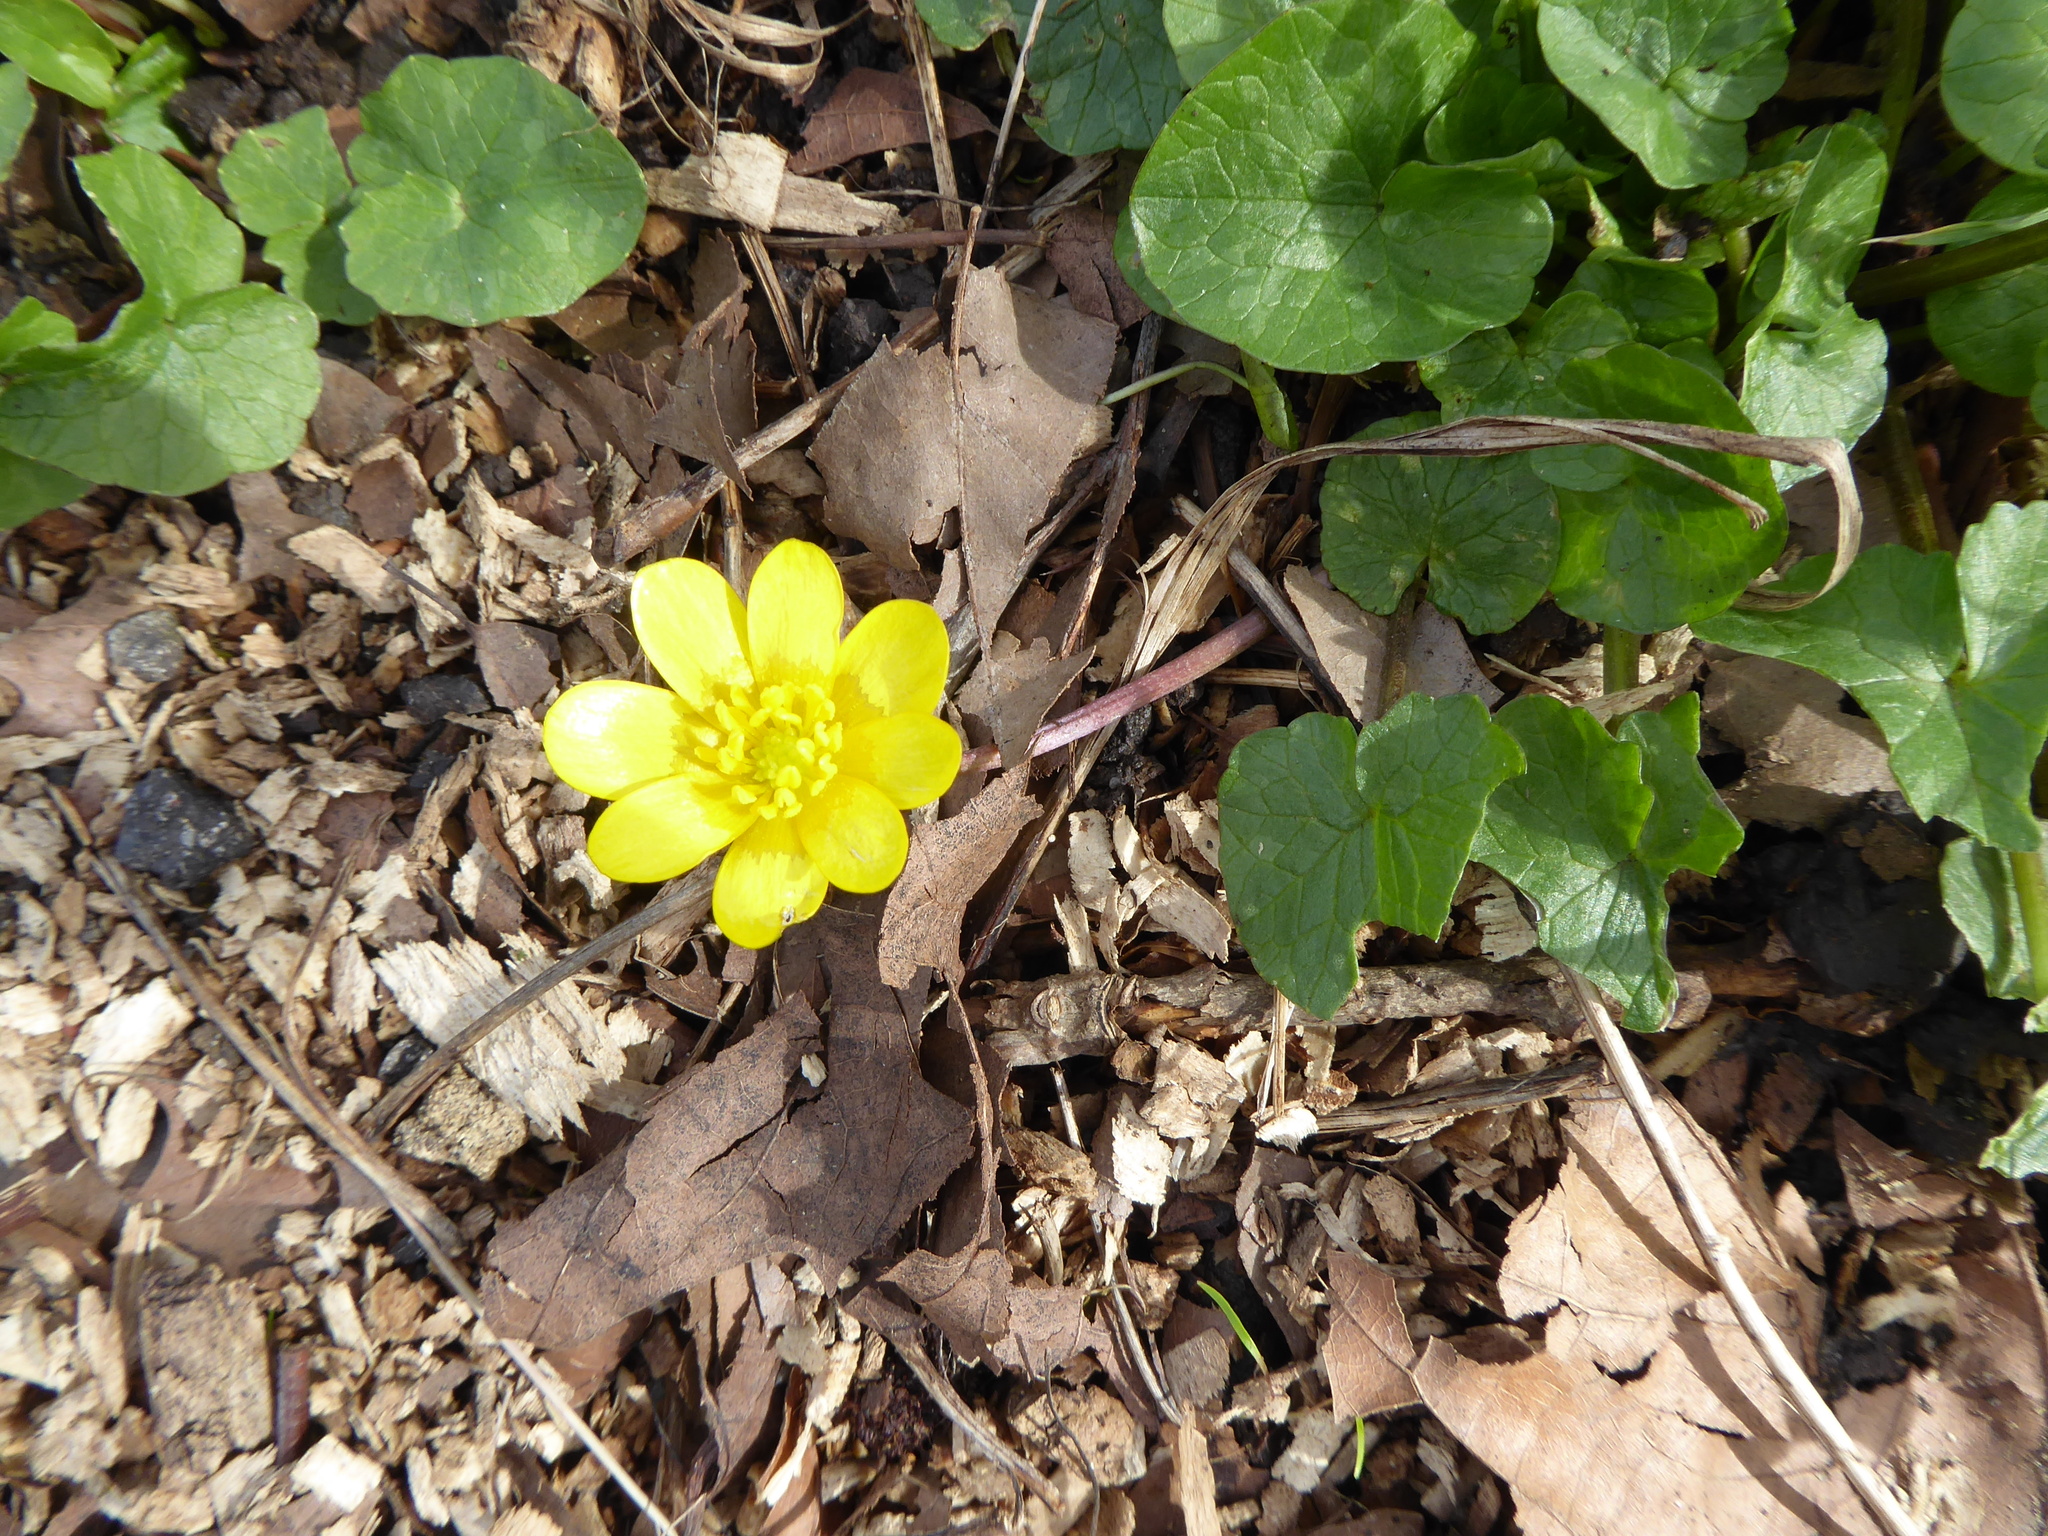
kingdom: Plantae
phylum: Tracheophyta
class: Magnoliopsida
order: Ranunculales
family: Ranunculaceae
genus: Ficaria
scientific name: Ficaria verna
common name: Lesser celandine
